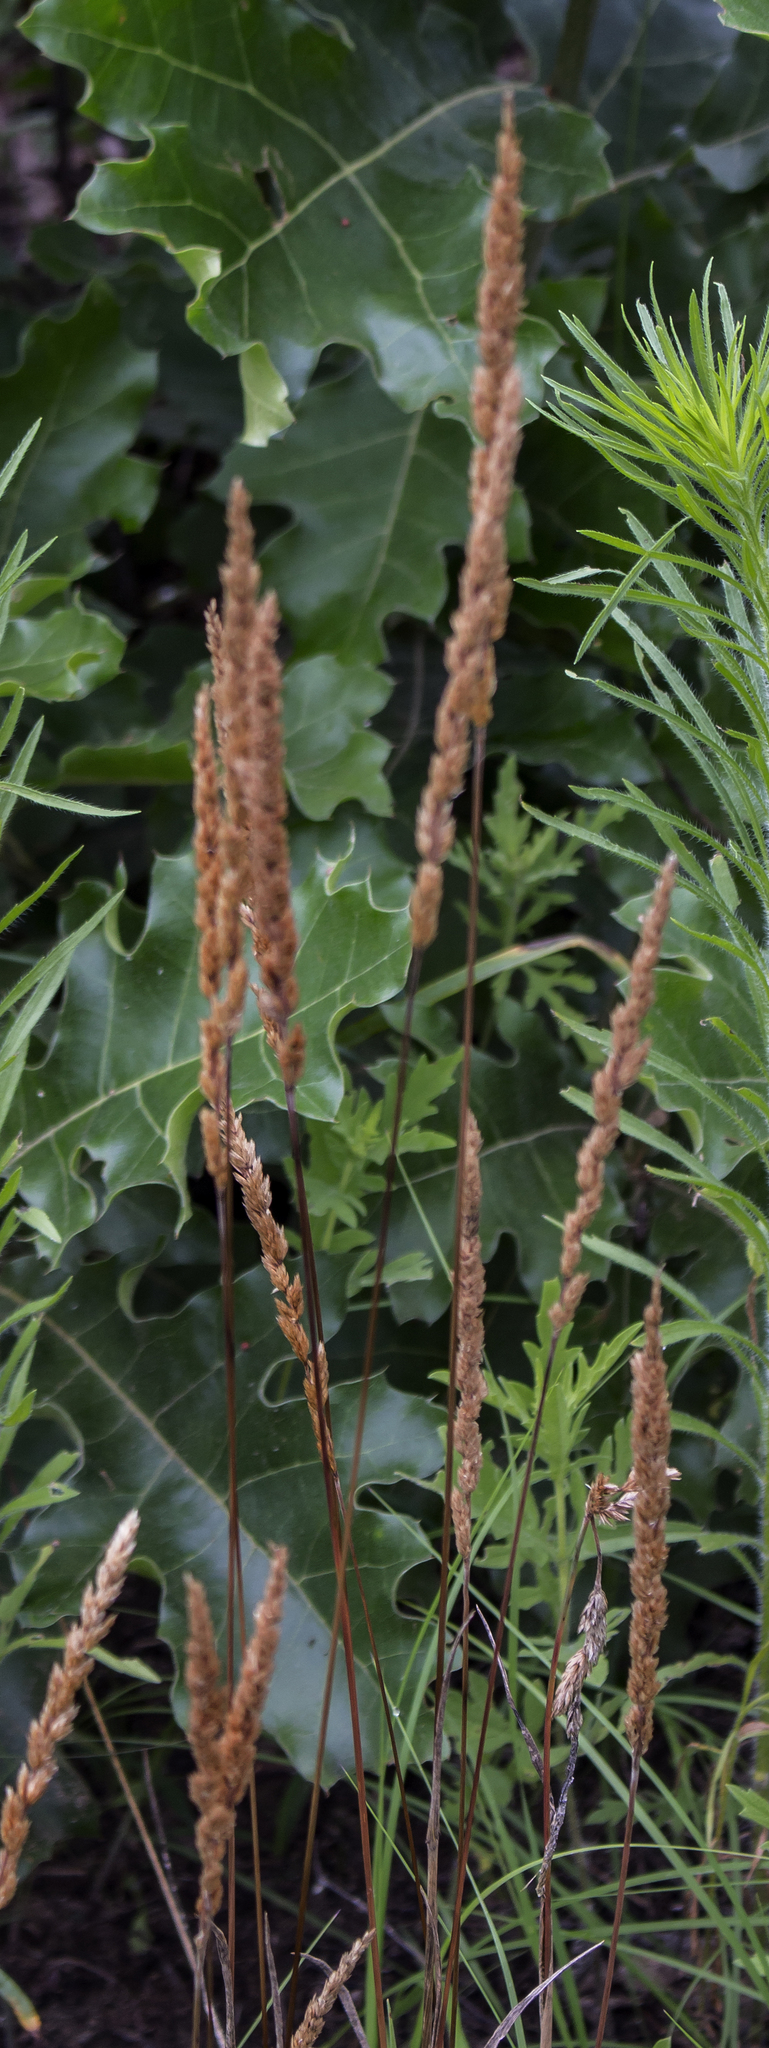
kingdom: Plantae
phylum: Tracheophyta
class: Liliopsida
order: Poales
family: Poaceae
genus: Koeleria
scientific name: Koeleria macrantha
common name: Crested hair-grass
